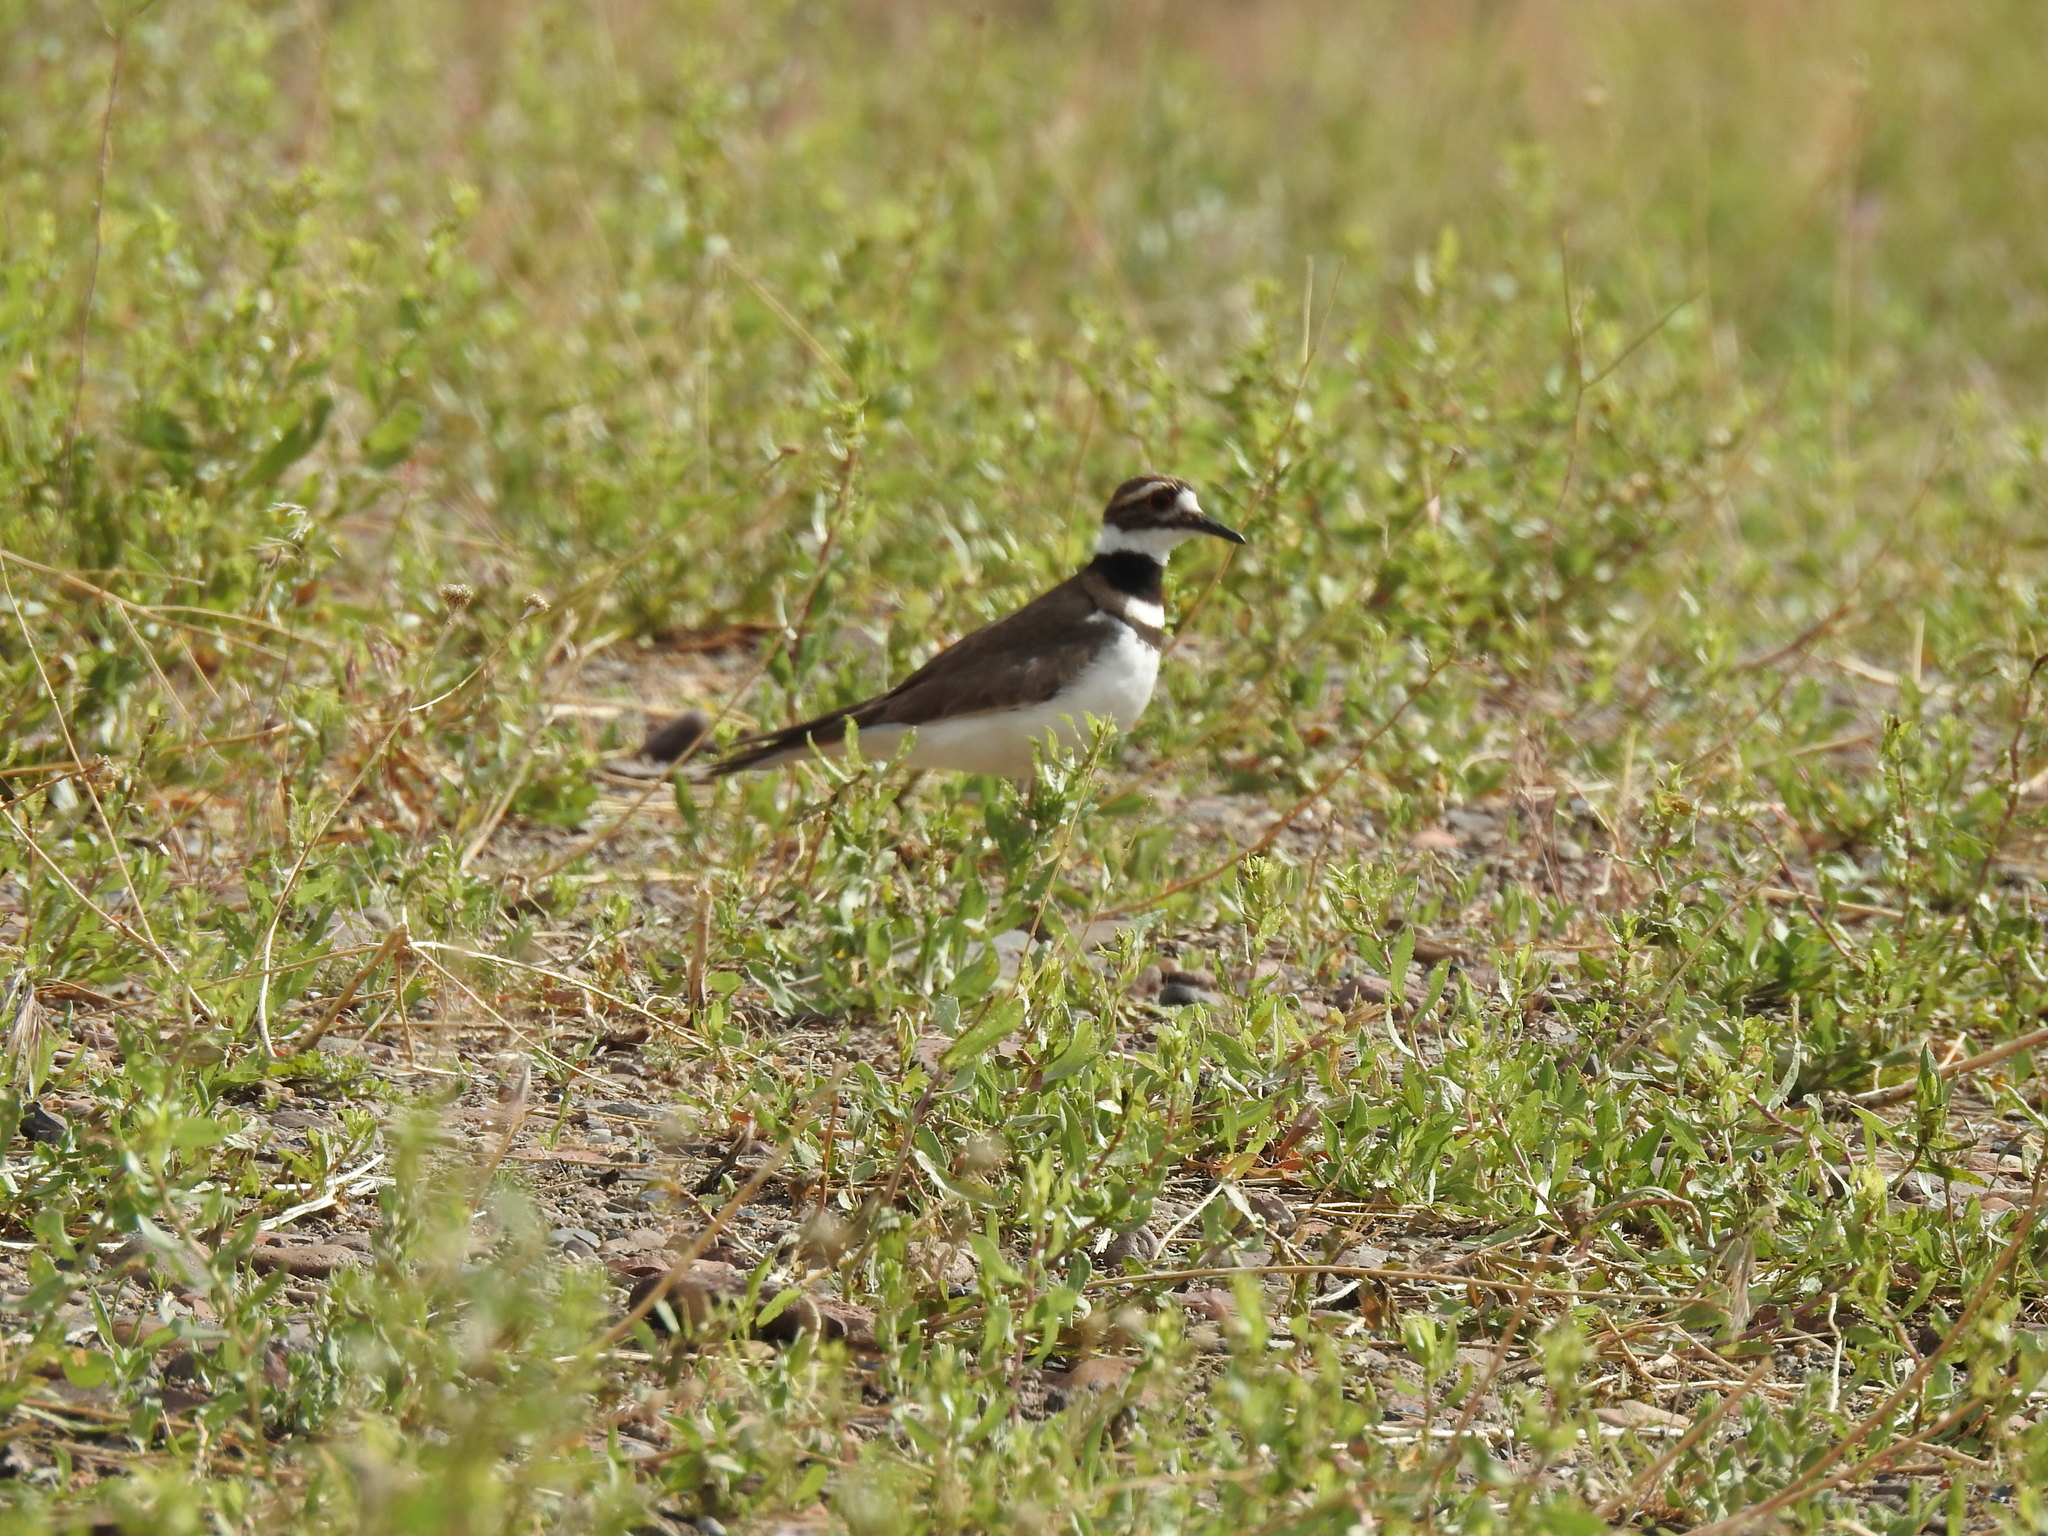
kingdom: Animalia
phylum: Chordata
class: Aves
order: Charadriiformes
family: Charadriidae
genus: Charadrius
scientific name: Charadrius vociferus
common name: Killdeer
